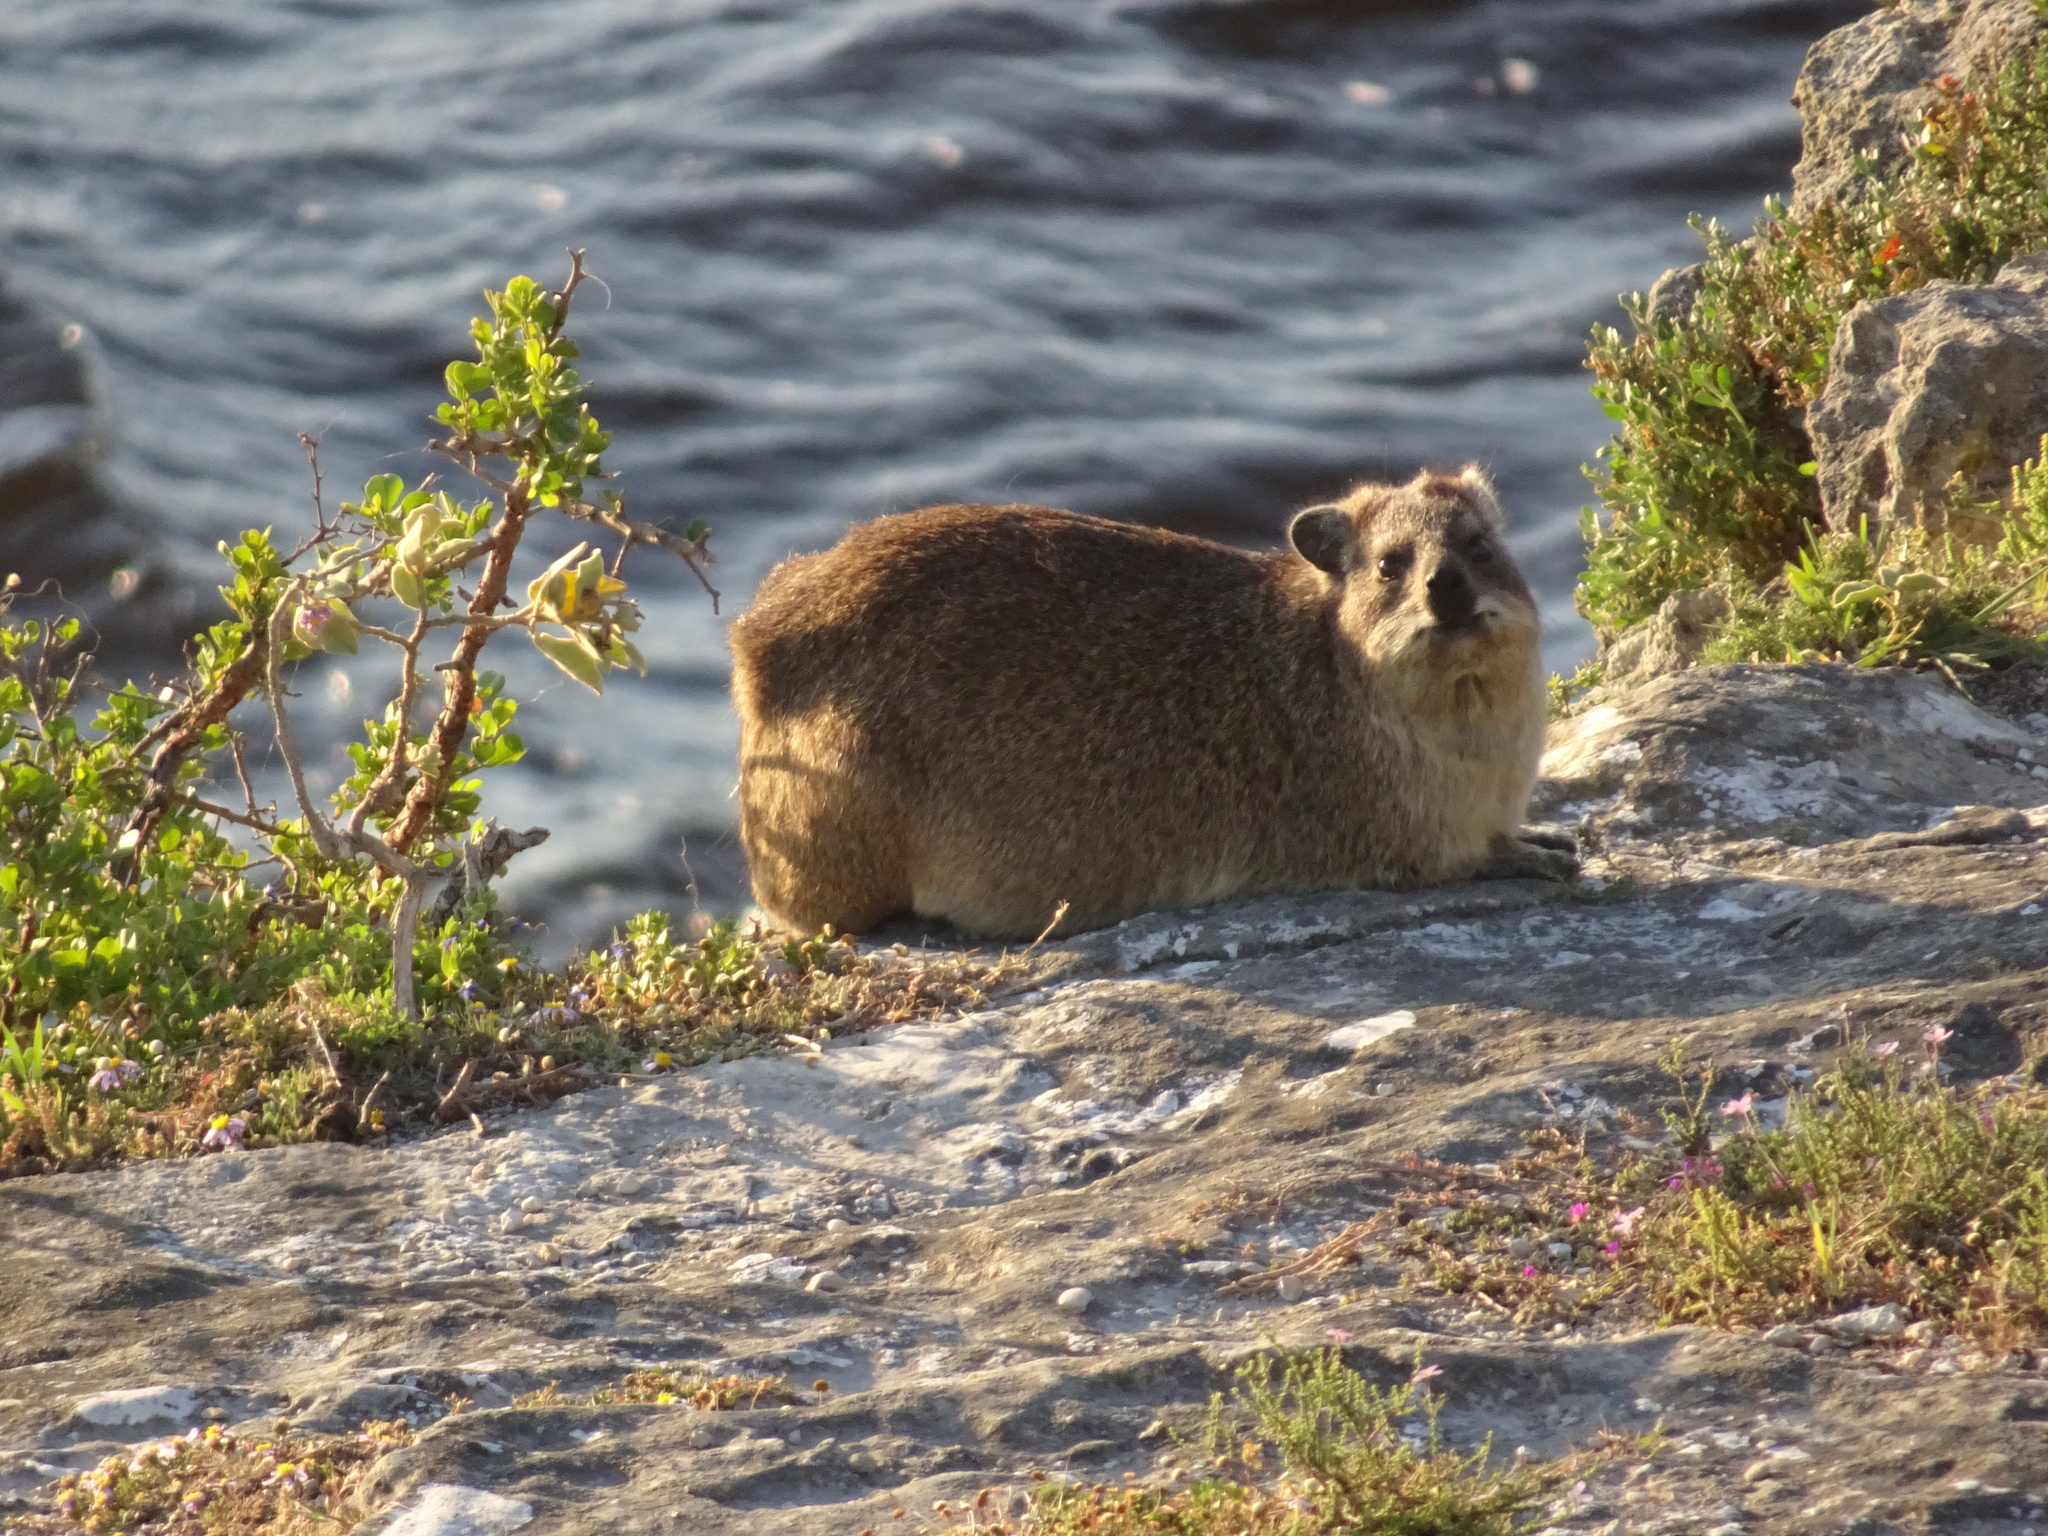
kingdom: Animalia
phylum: Chordata
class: Mammalia
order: Hyracoidea
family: Procaviidae
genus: Procavia
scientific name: Procavia capensis
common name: Rock hyrax
